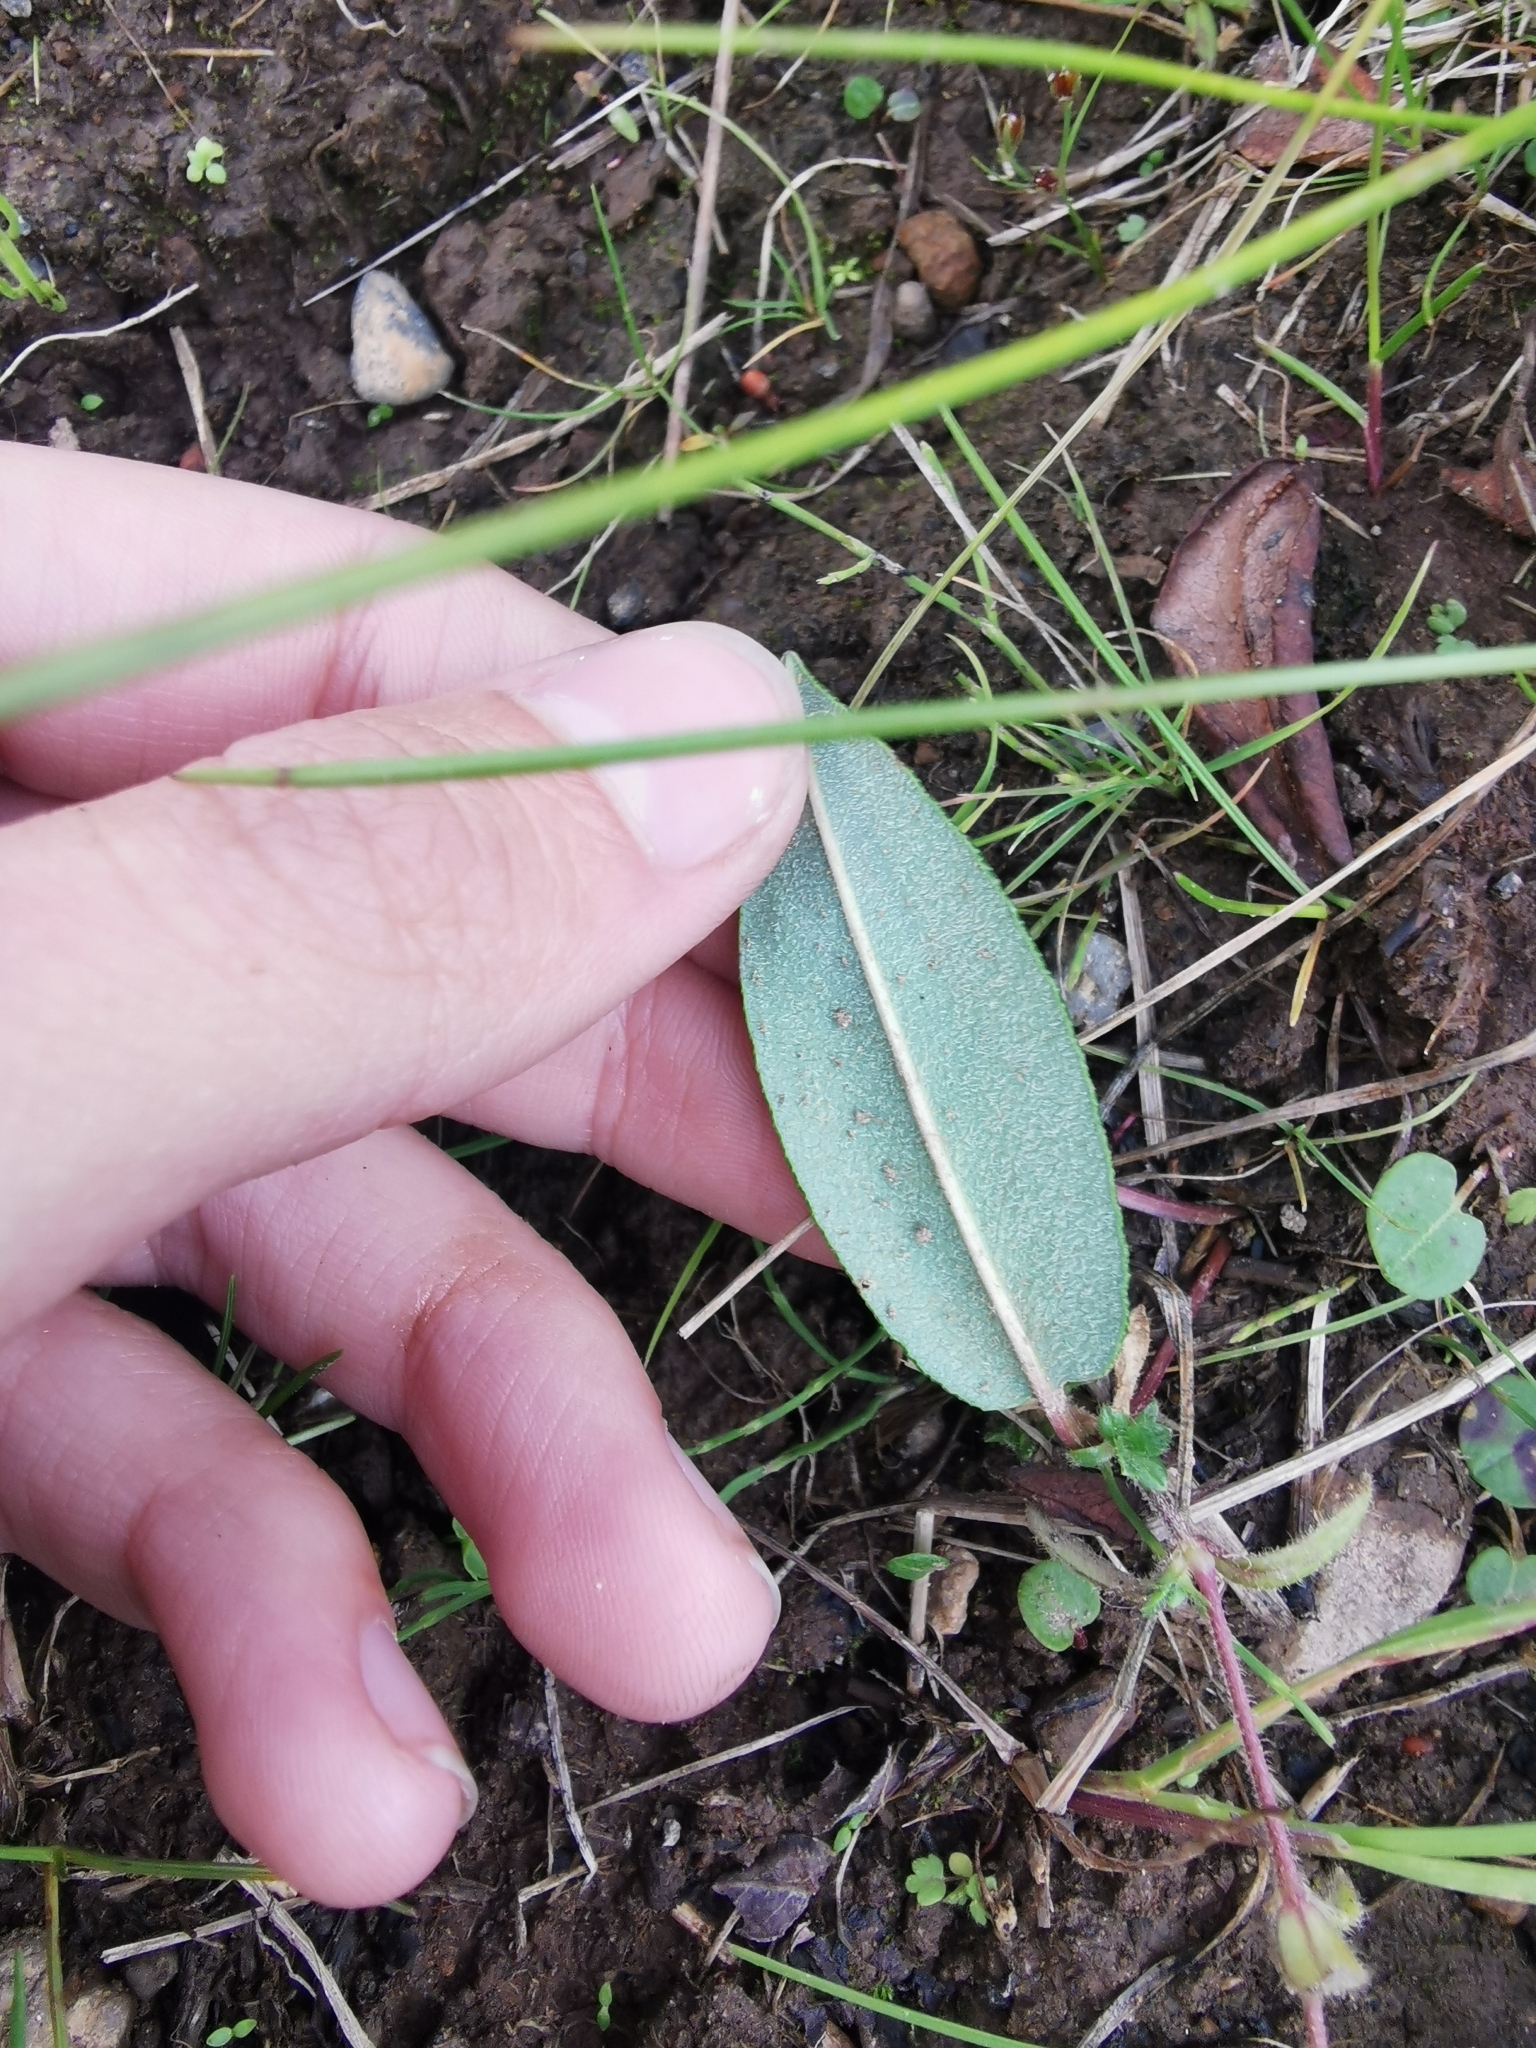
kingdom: Plantae
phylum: Tracheophyta
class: Magnoliopsida
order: Caryophyllales
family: Polygonaceae
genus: Bistorta
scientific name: Bistorta vivipara
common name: Alpine bistort
